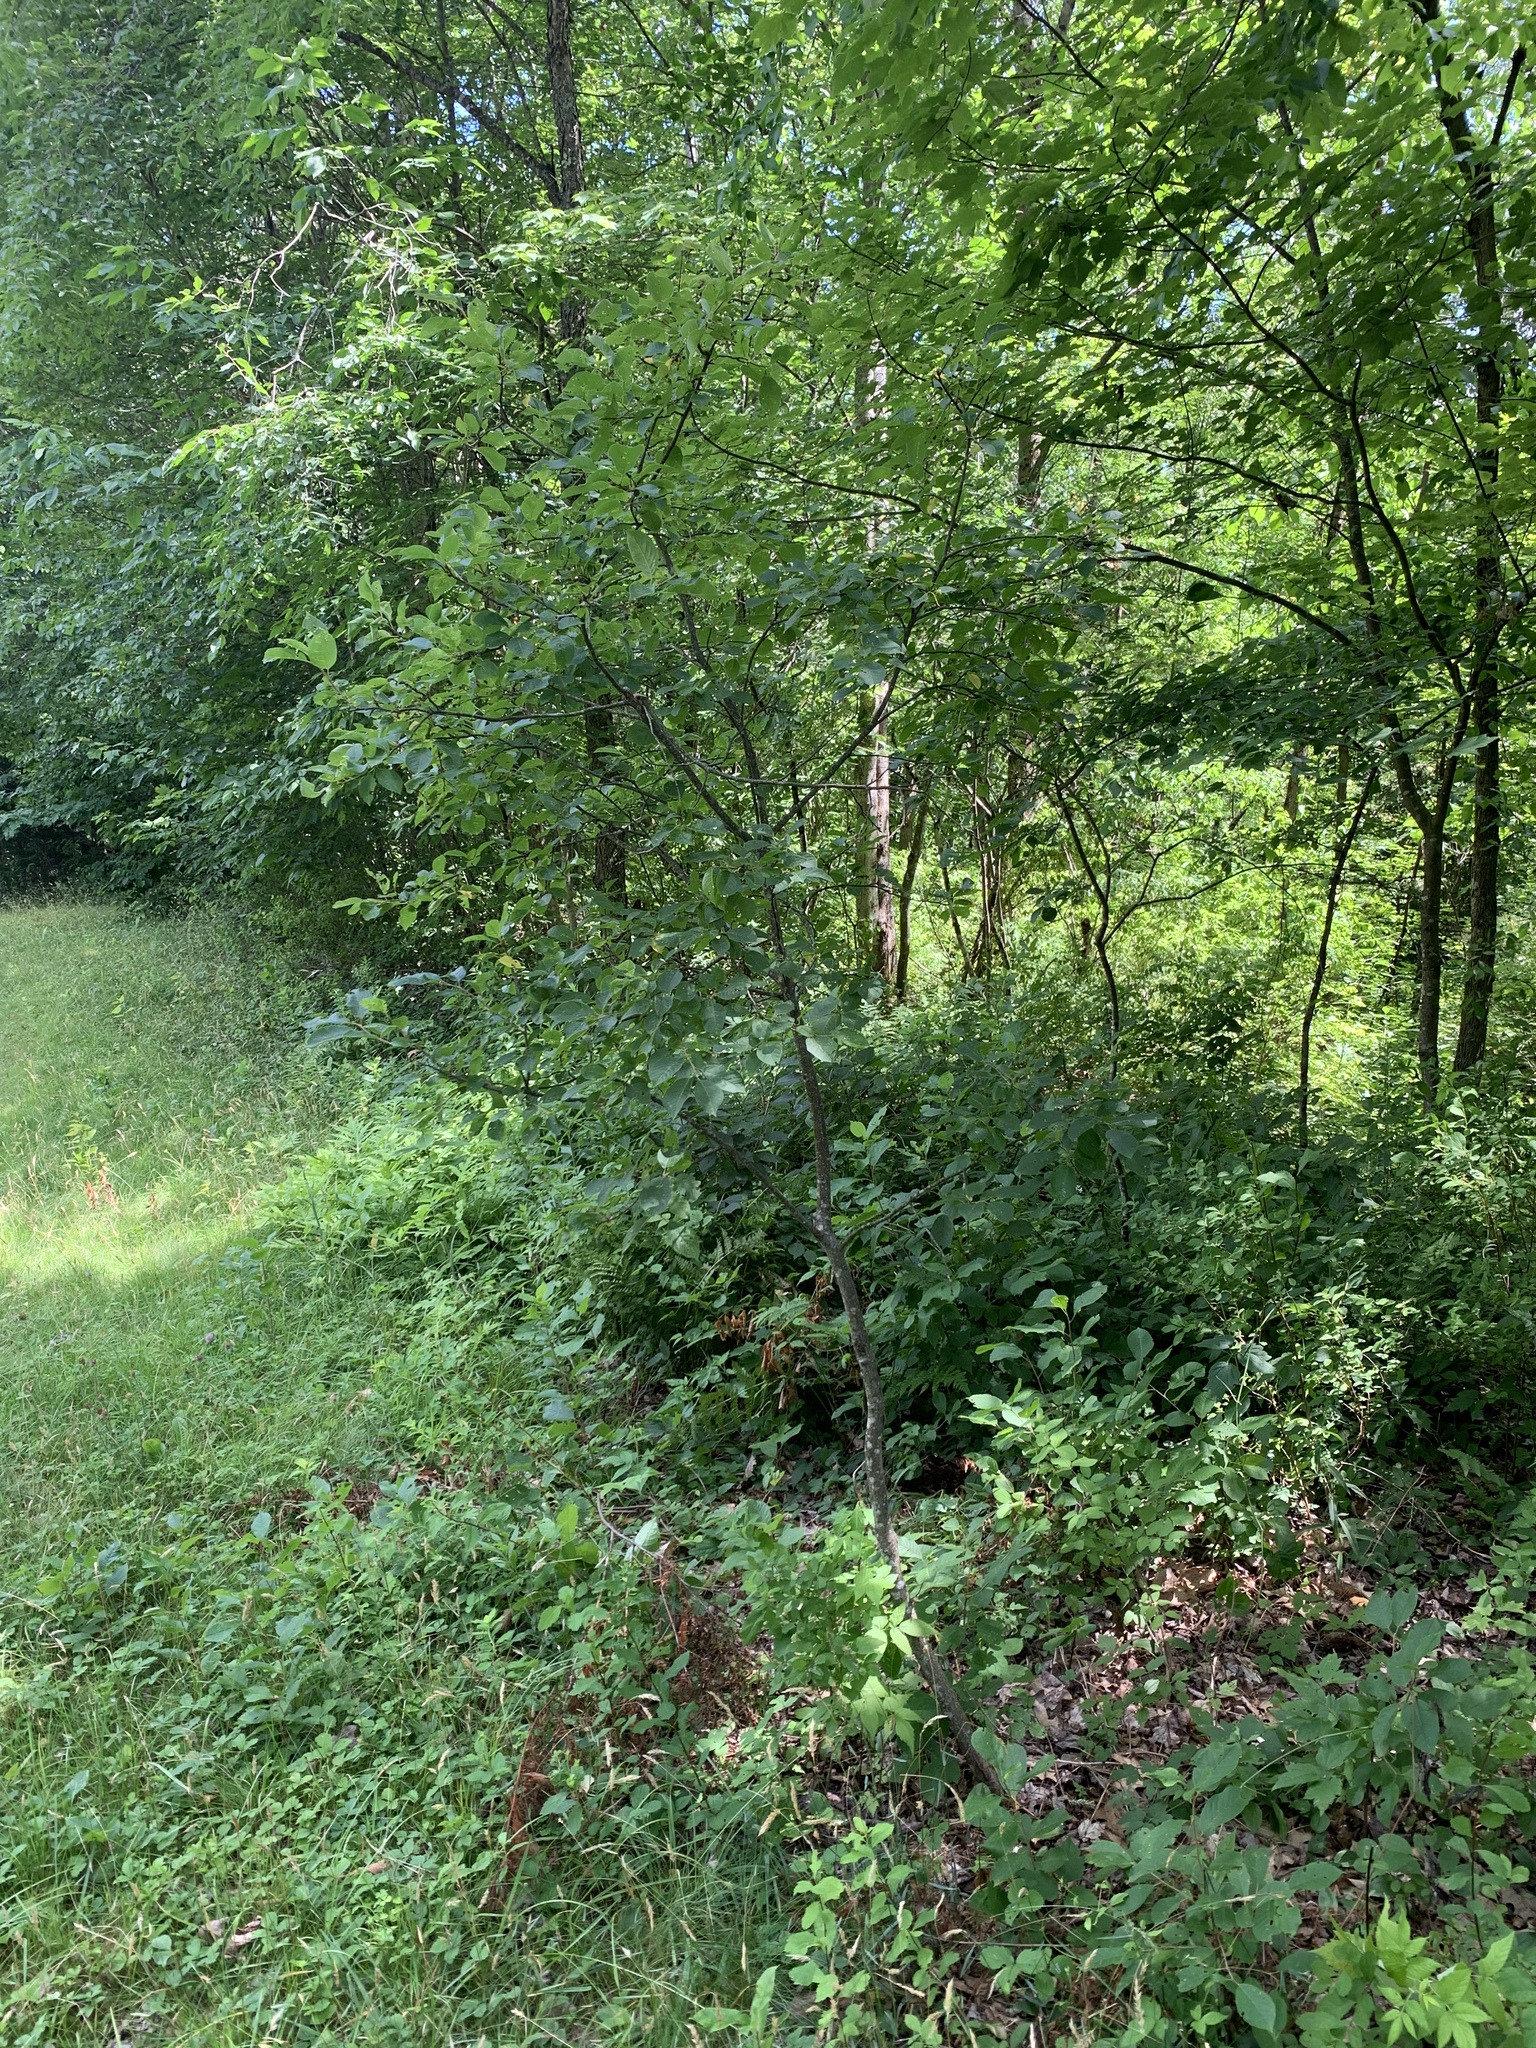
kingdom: Plantae
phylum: Tracheophyta
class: Magnoliopsida
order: Rosales
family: Rosaceae
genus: Prunus
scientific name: Prunus virginiana
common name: Chokecherry
